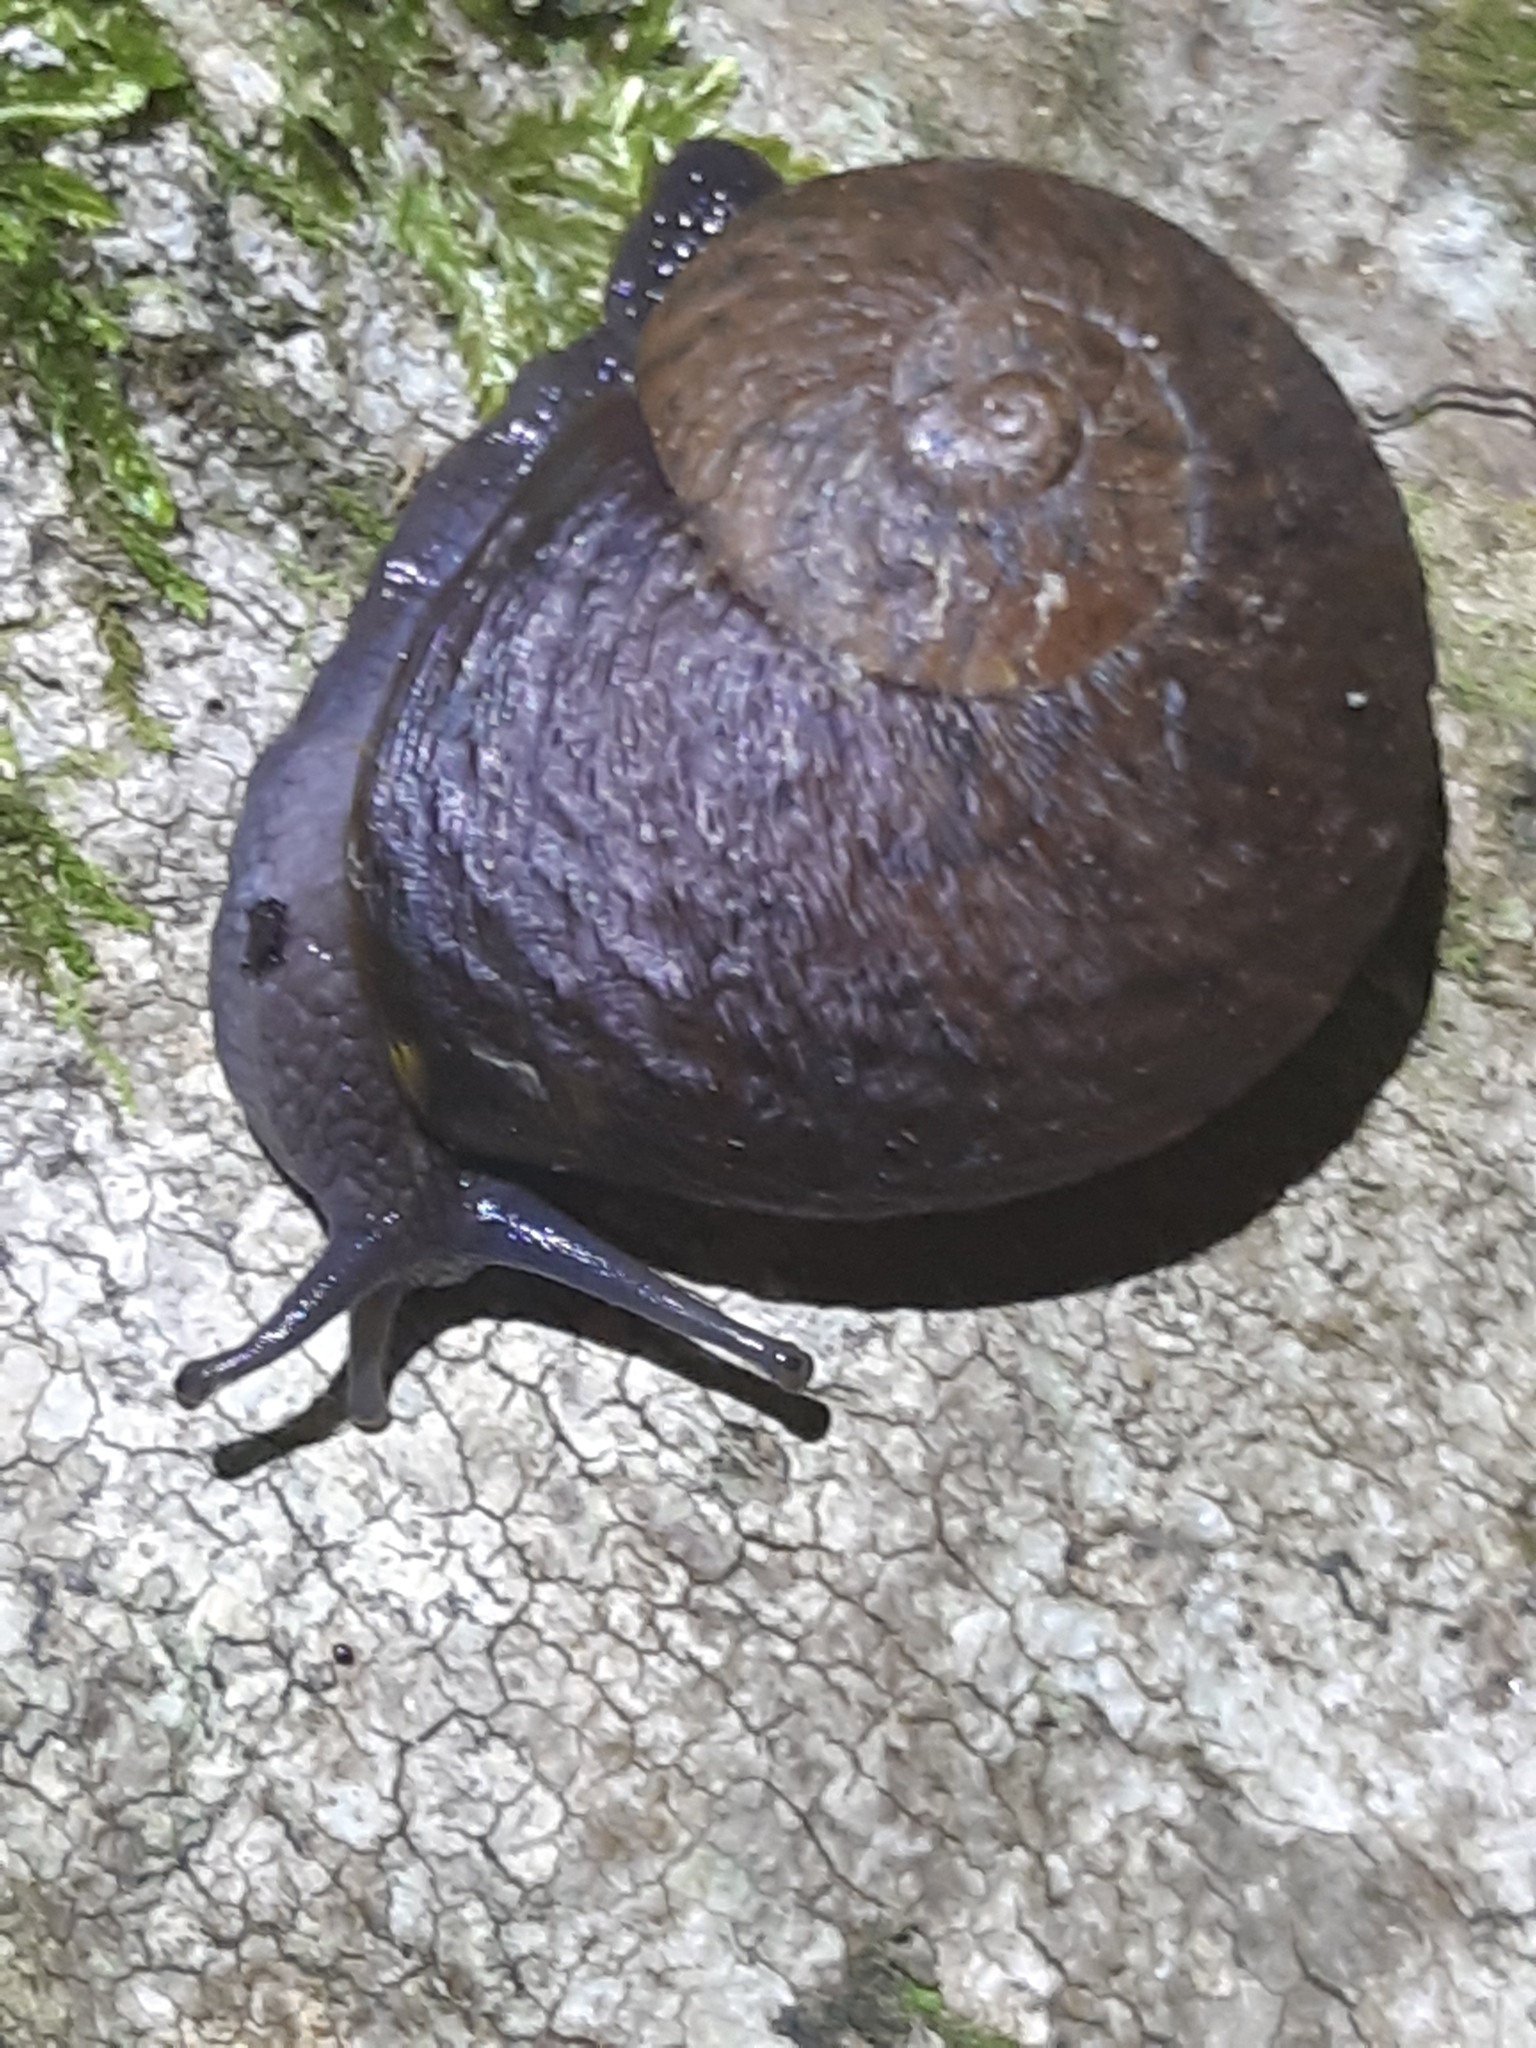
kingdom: Animalia
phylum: Mollusca
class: Gastropoda
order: Stylommatophora
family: Rhytididae
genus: Rhytida
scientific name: Rhytida stephenensis
